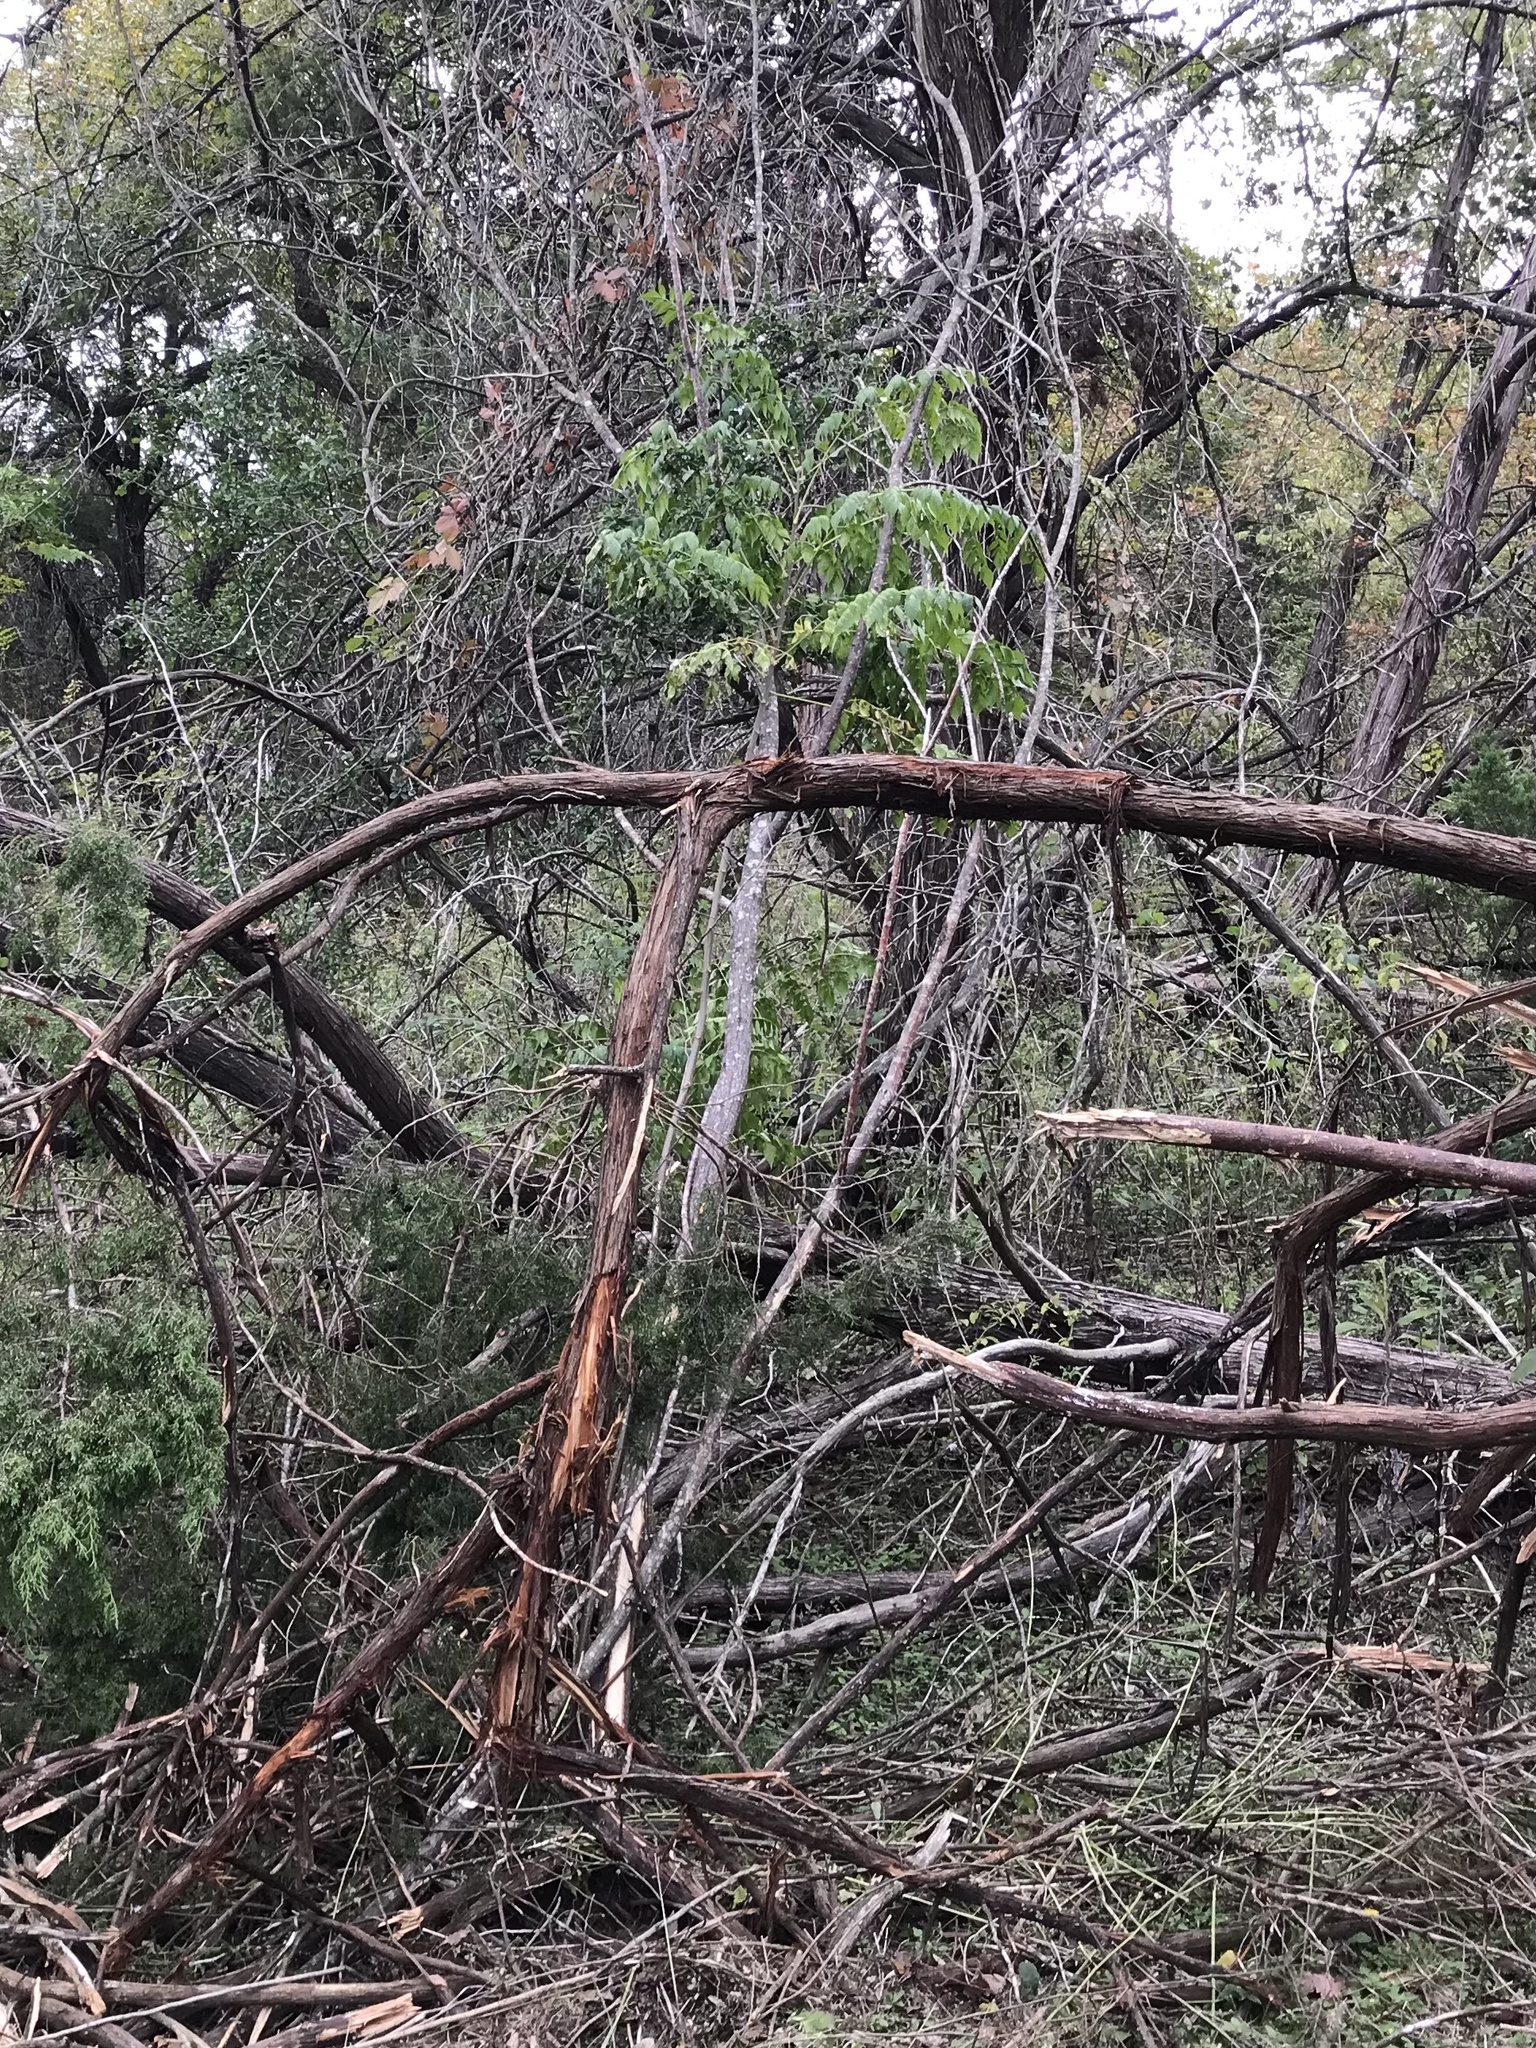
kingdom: Plantae
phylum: Tracheophyta
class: Magnoliopsida
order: Sapindales
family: Meliaceae
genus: Melia
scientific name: Melia azedarach
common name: Chinaberrytree
